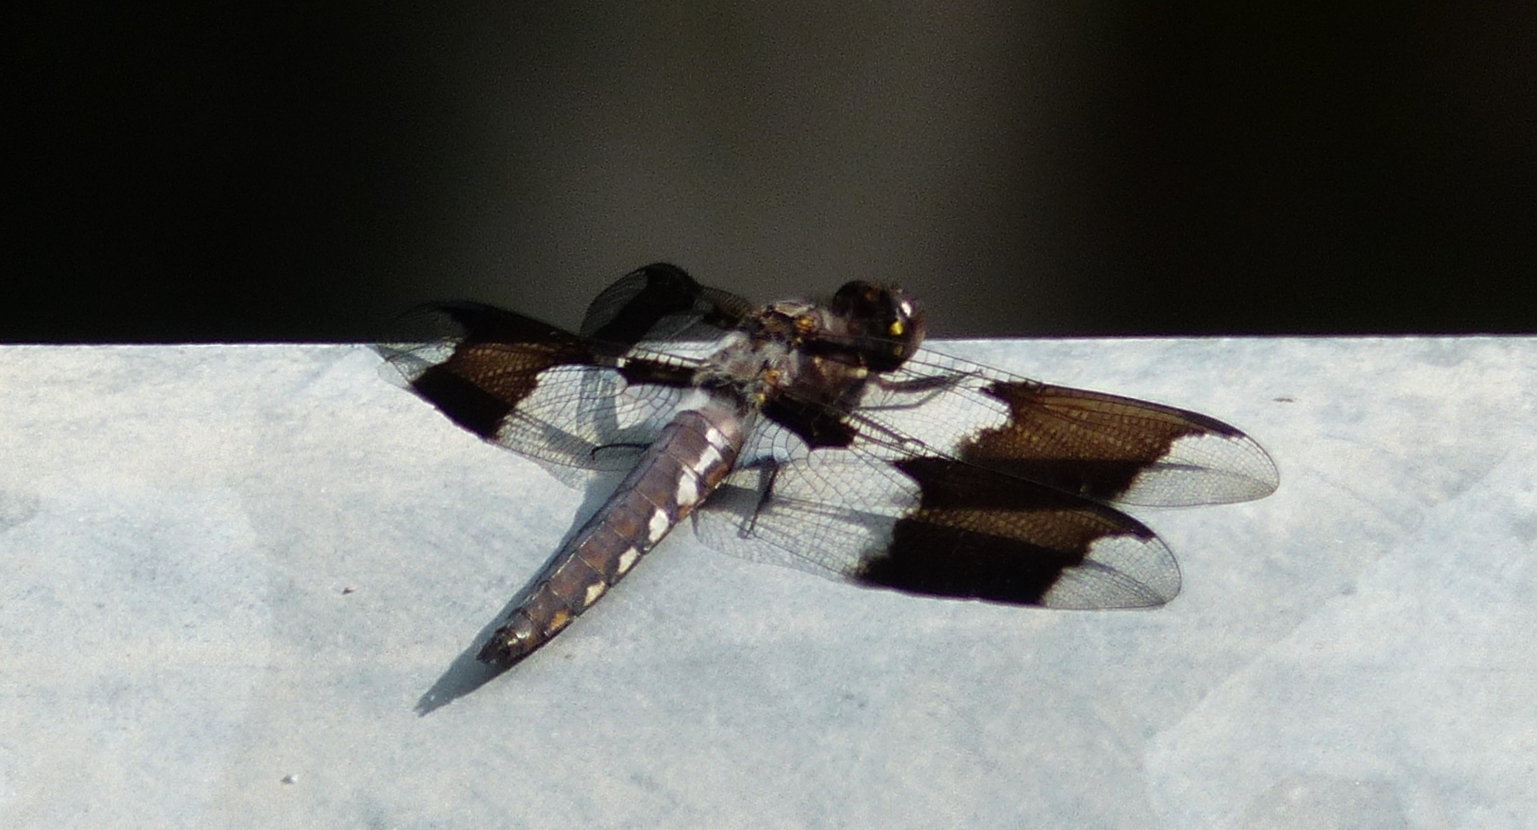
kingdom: Animalia
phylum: Arthropoda
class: Insecta
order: Odonata
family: Libellulidae
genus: Plathemis
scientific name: Plathemis lydia
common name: Common whitetail
